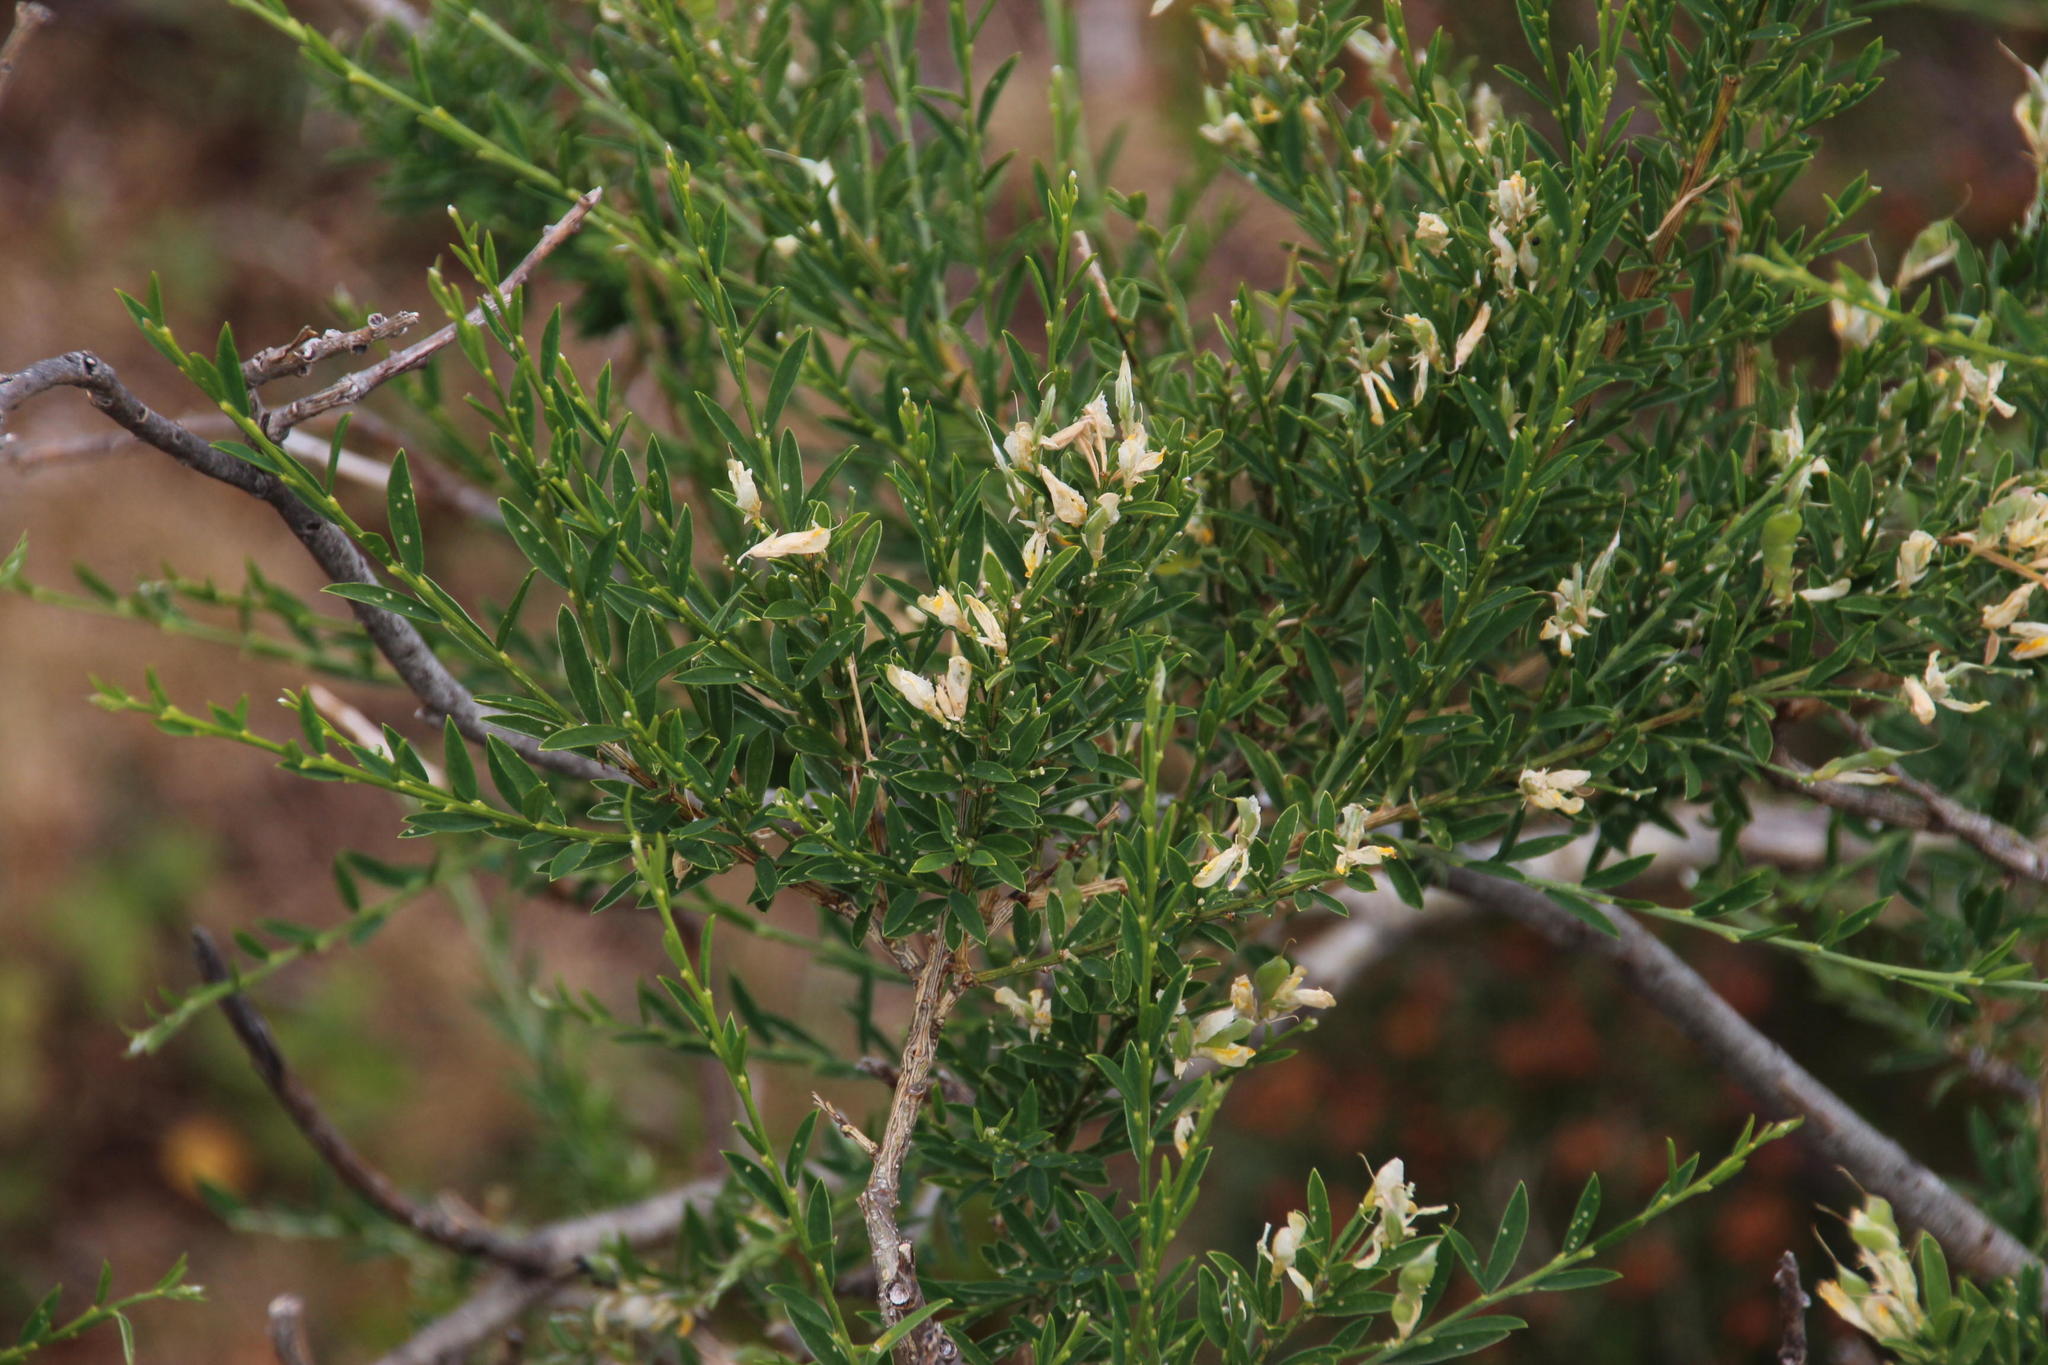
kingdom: Plantae
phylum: Tracheophyta
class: Magnoliopsida
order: Fabales
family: Fabaceae
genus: Genista
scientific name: Genista florida
